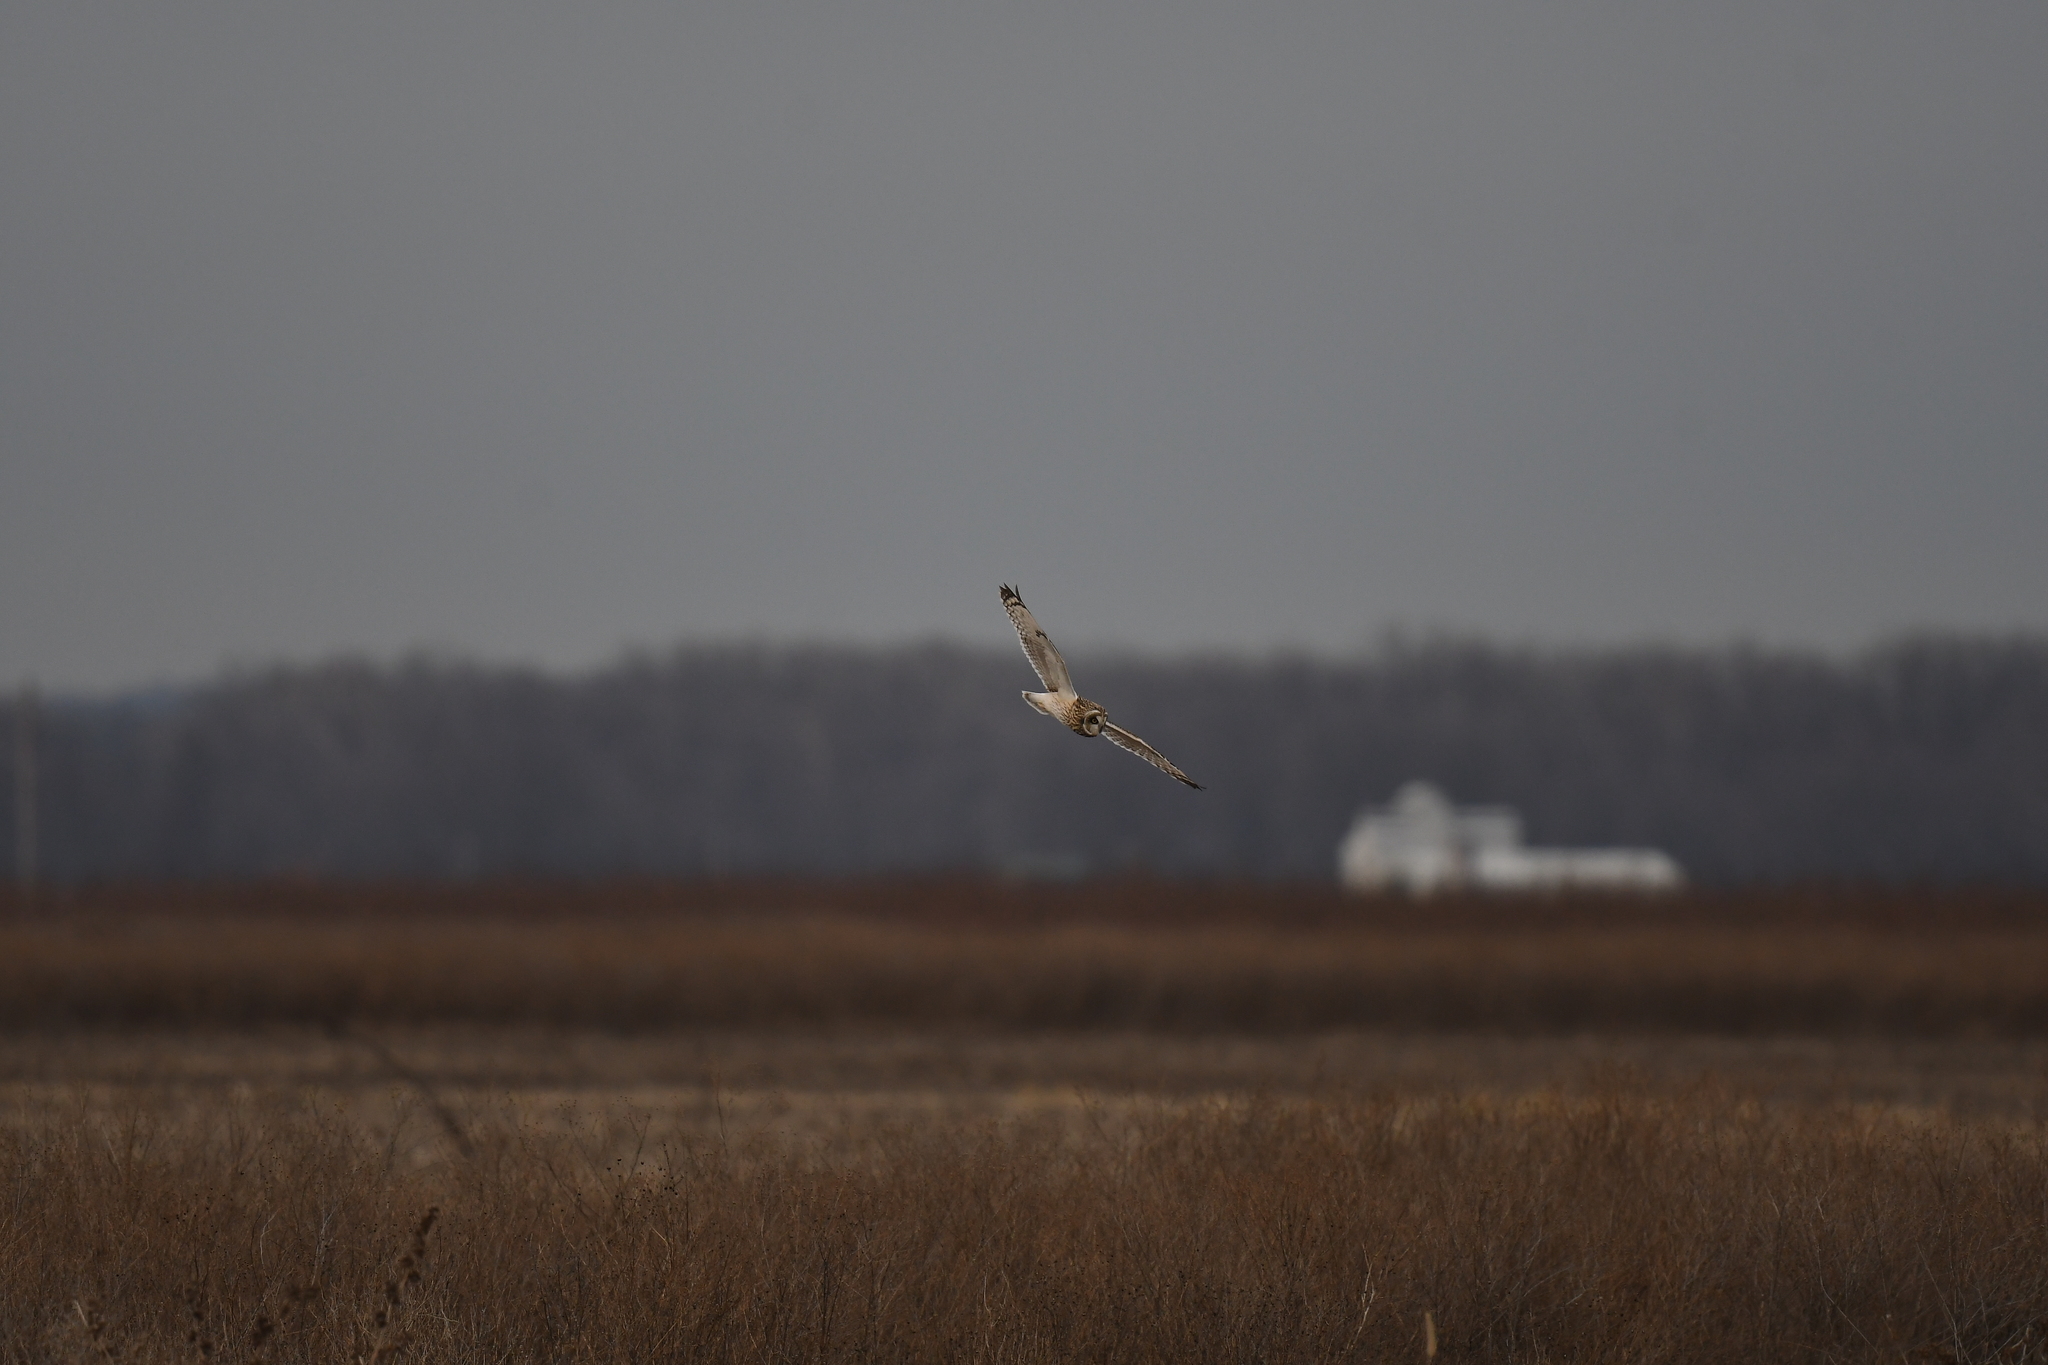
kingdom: Animalia
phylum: Chordata
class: Aves
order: Strigiformes
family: Strigidae
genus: Asio
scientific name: Asio flammeus
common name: Short-eared owl
